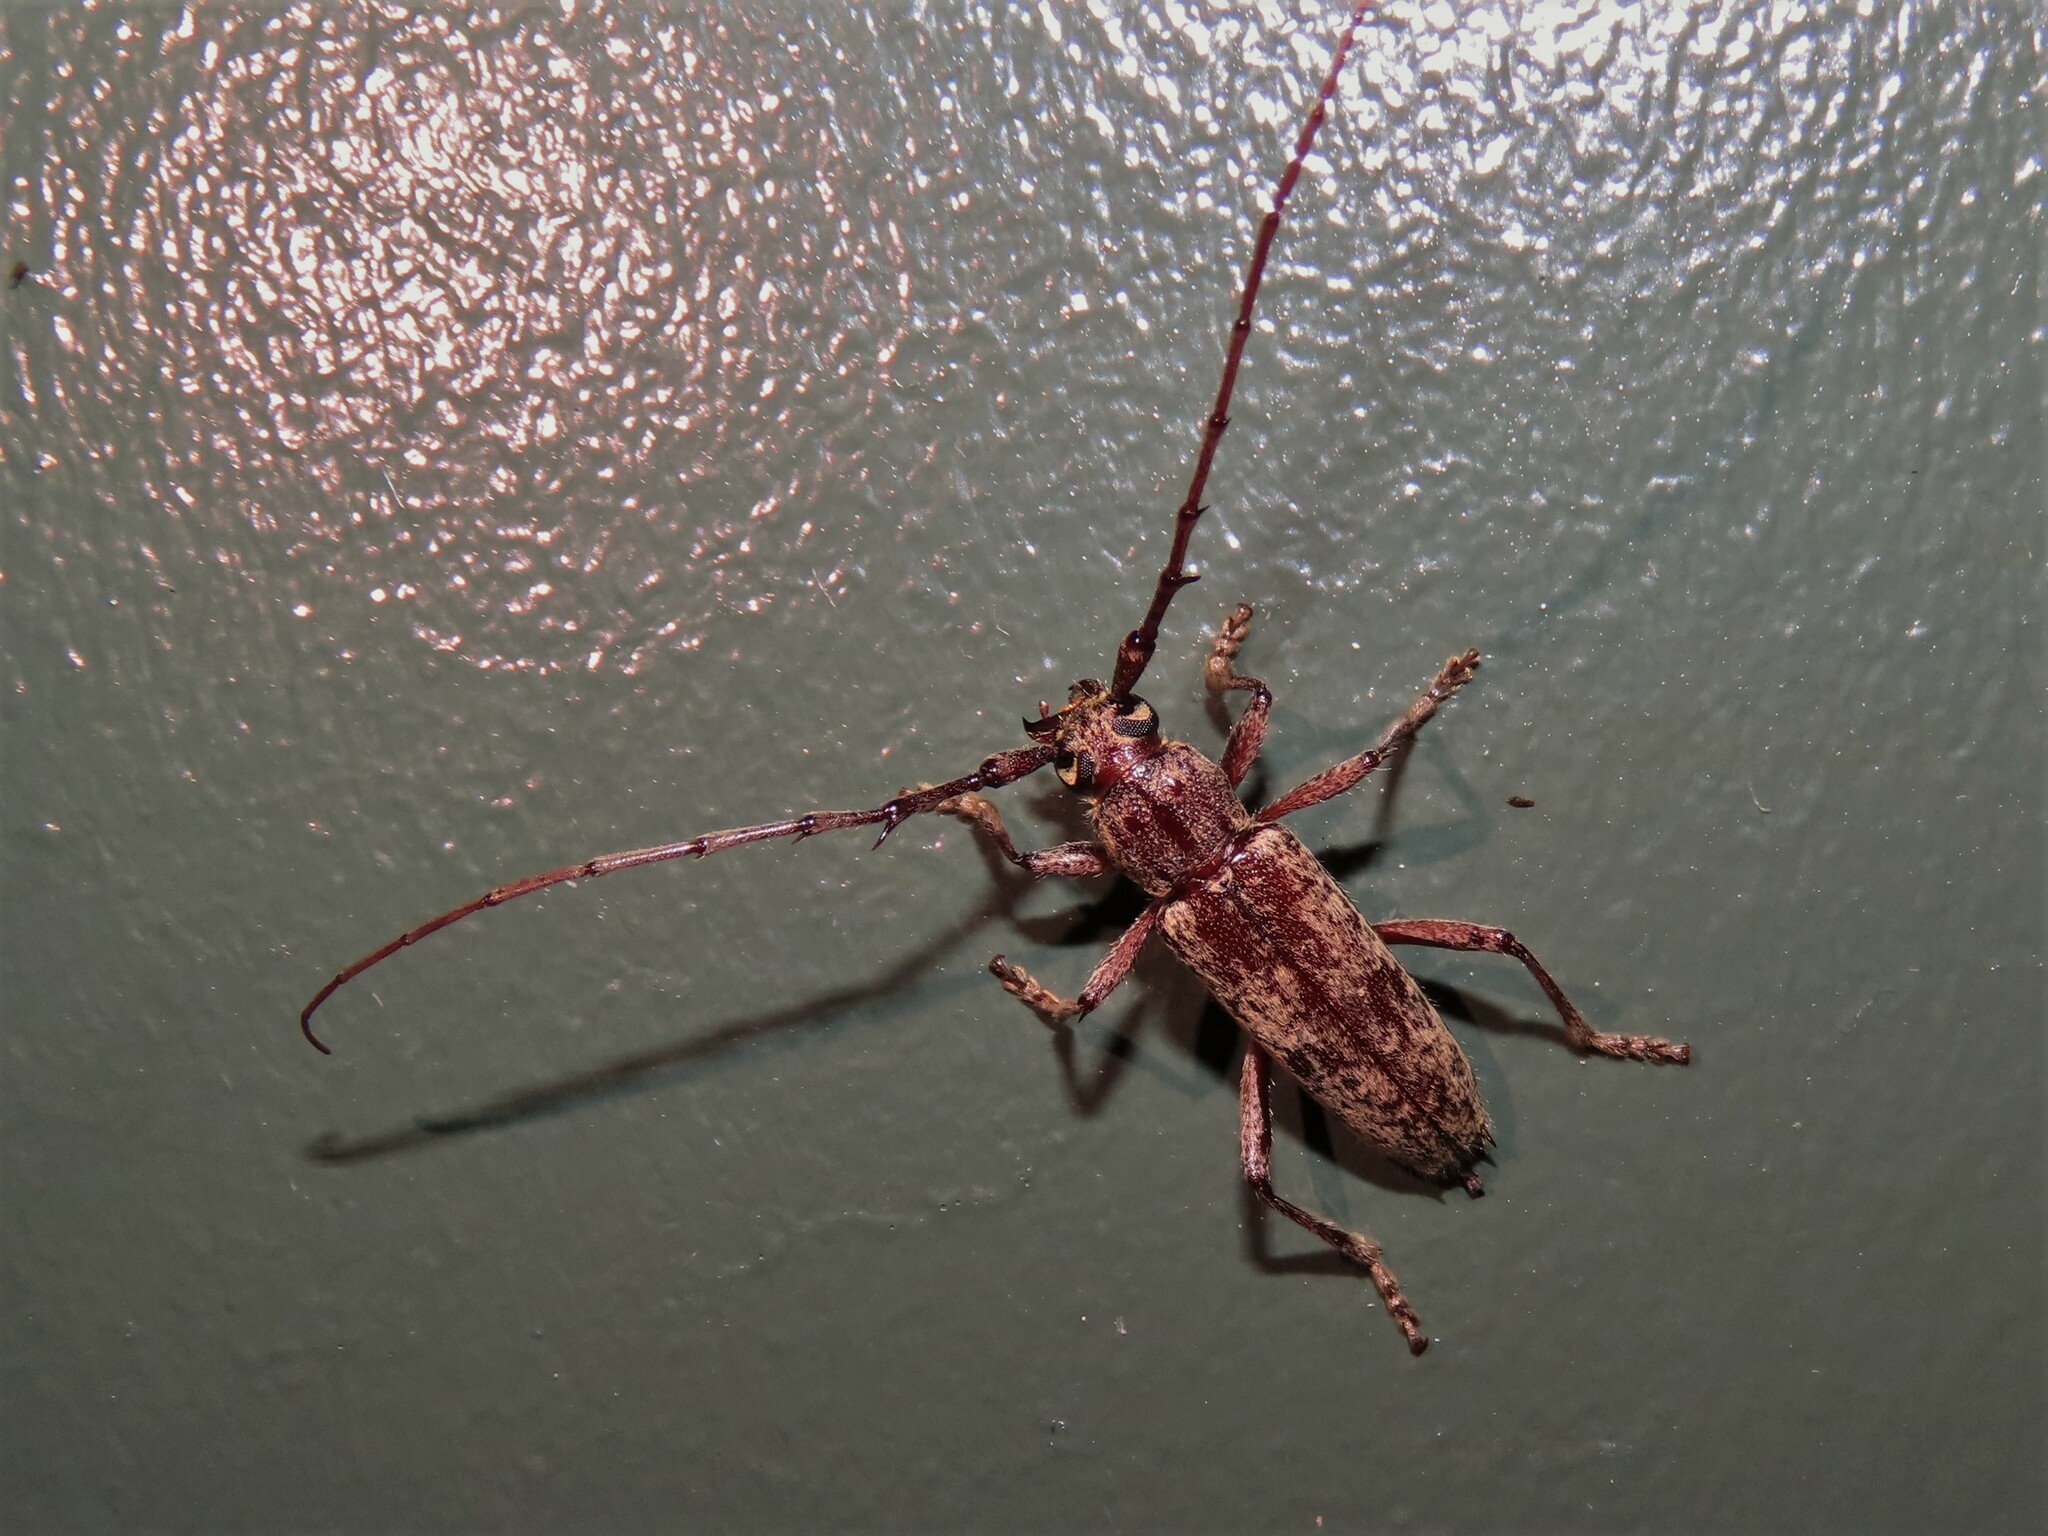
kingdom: Animalia
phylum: Arthropoda
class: Insecta
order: Coleoptera
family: Cerambycidae
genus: Elaphidion
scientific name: Elaphidion mucronatum
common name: Spined oak borer
